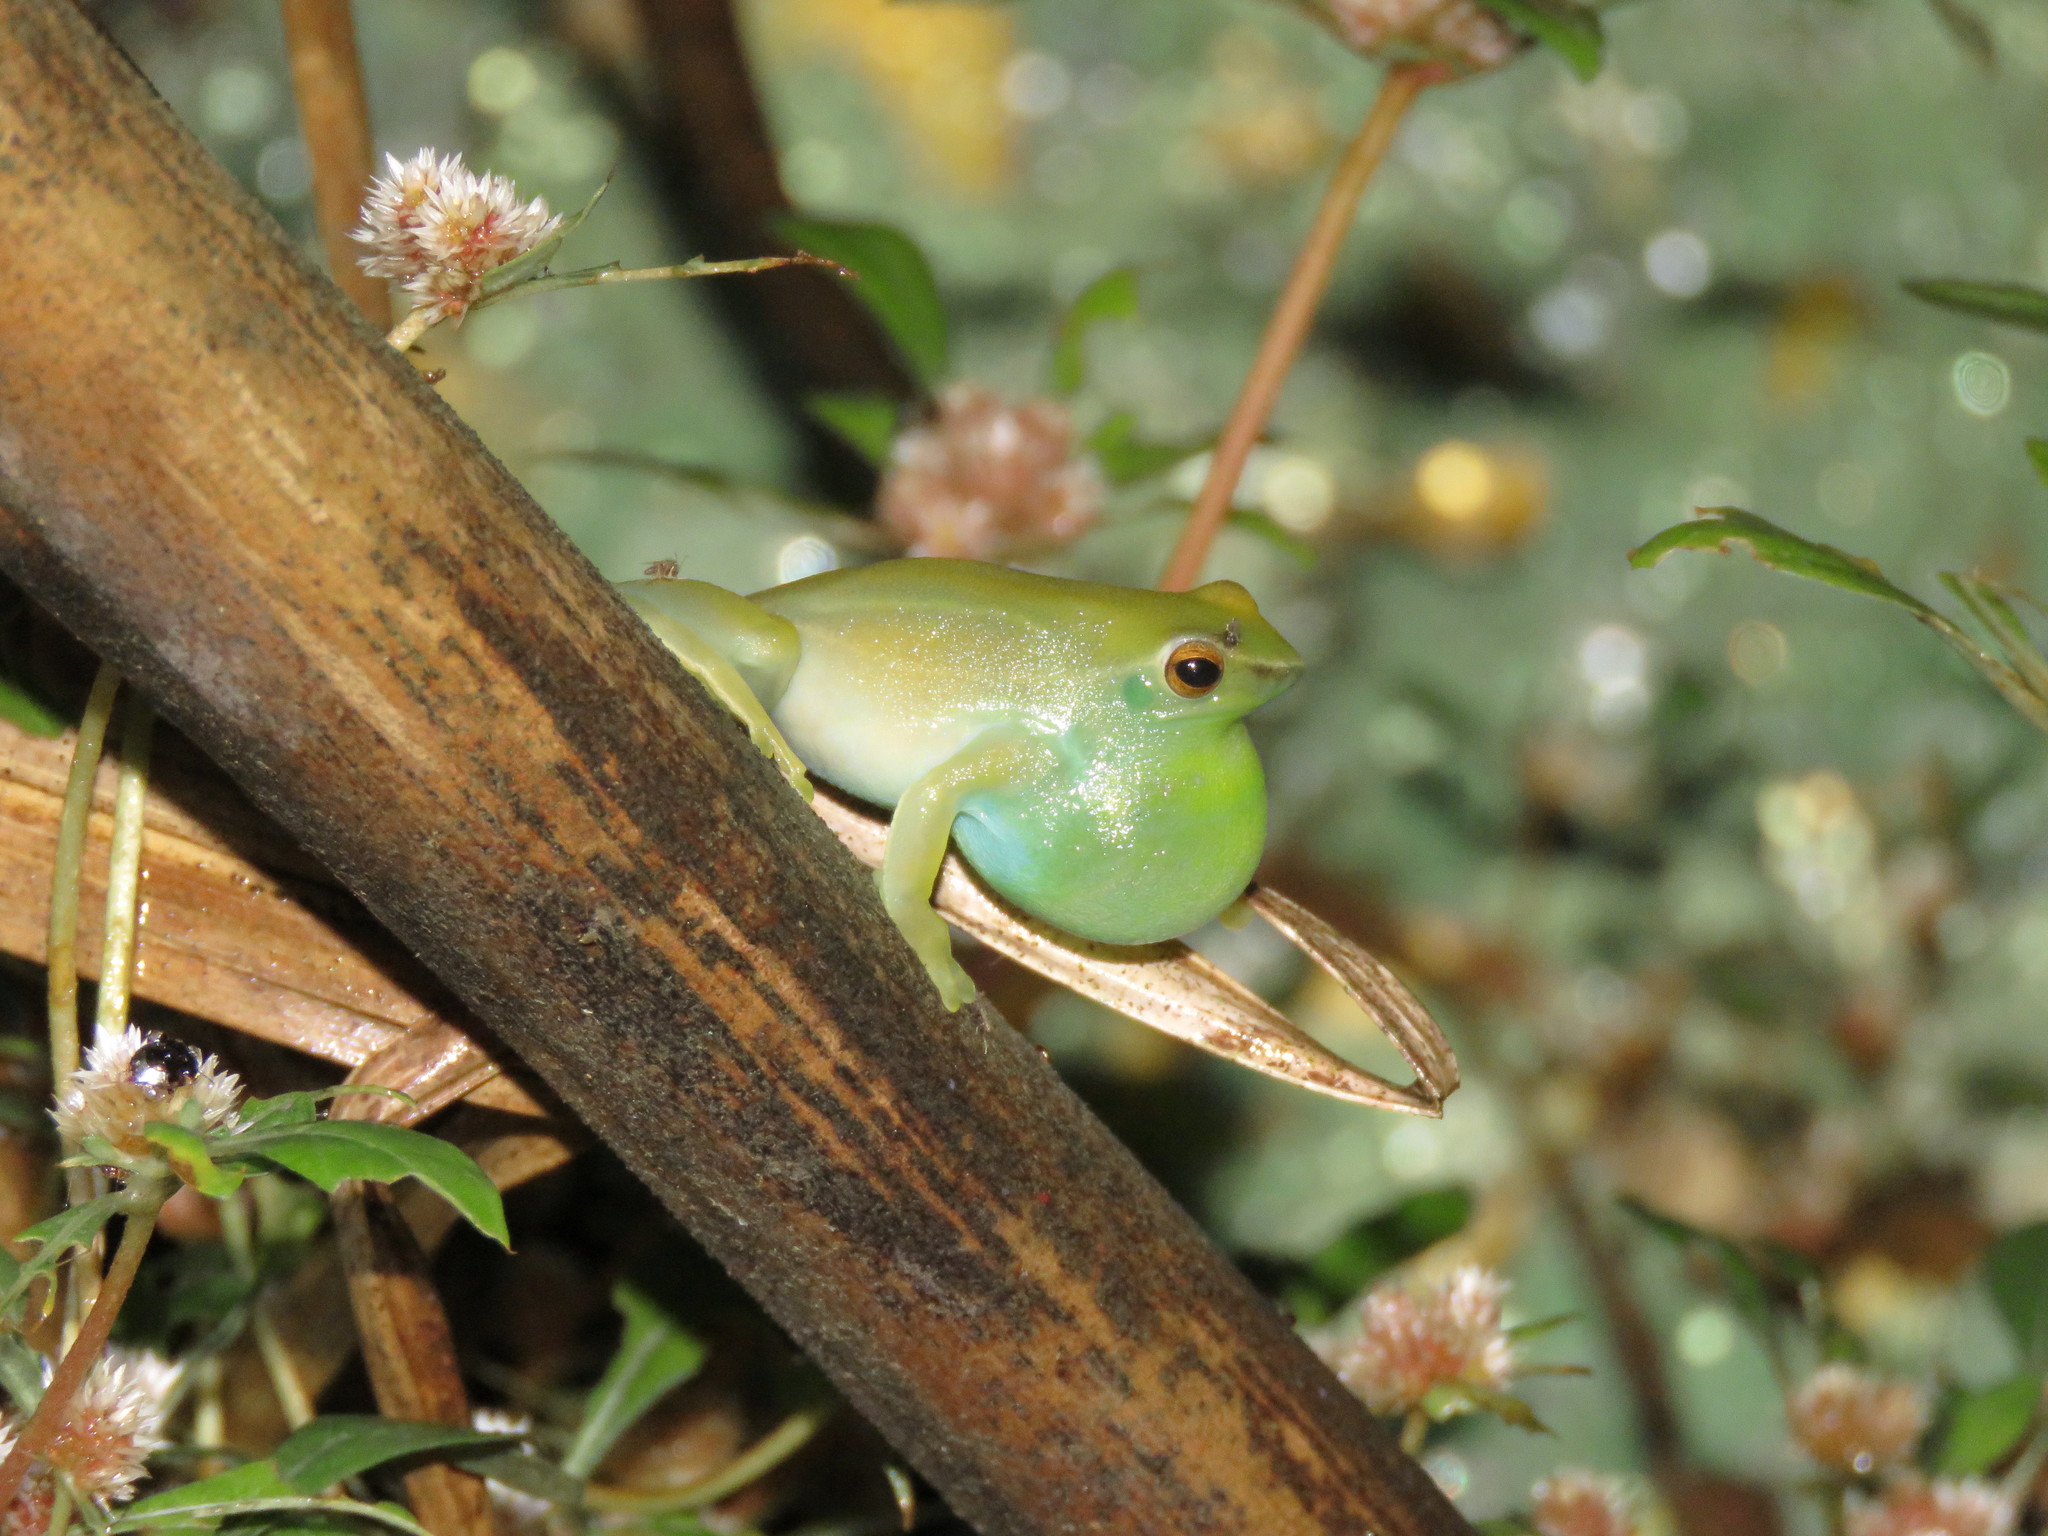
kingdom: Animalia
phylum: Chordata
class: Amphibia
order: Anura
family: Hylidae
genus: Sphaenorhynchus
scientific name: Sphaenorhynchus lacteus
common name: Orinoco lime treefrog
